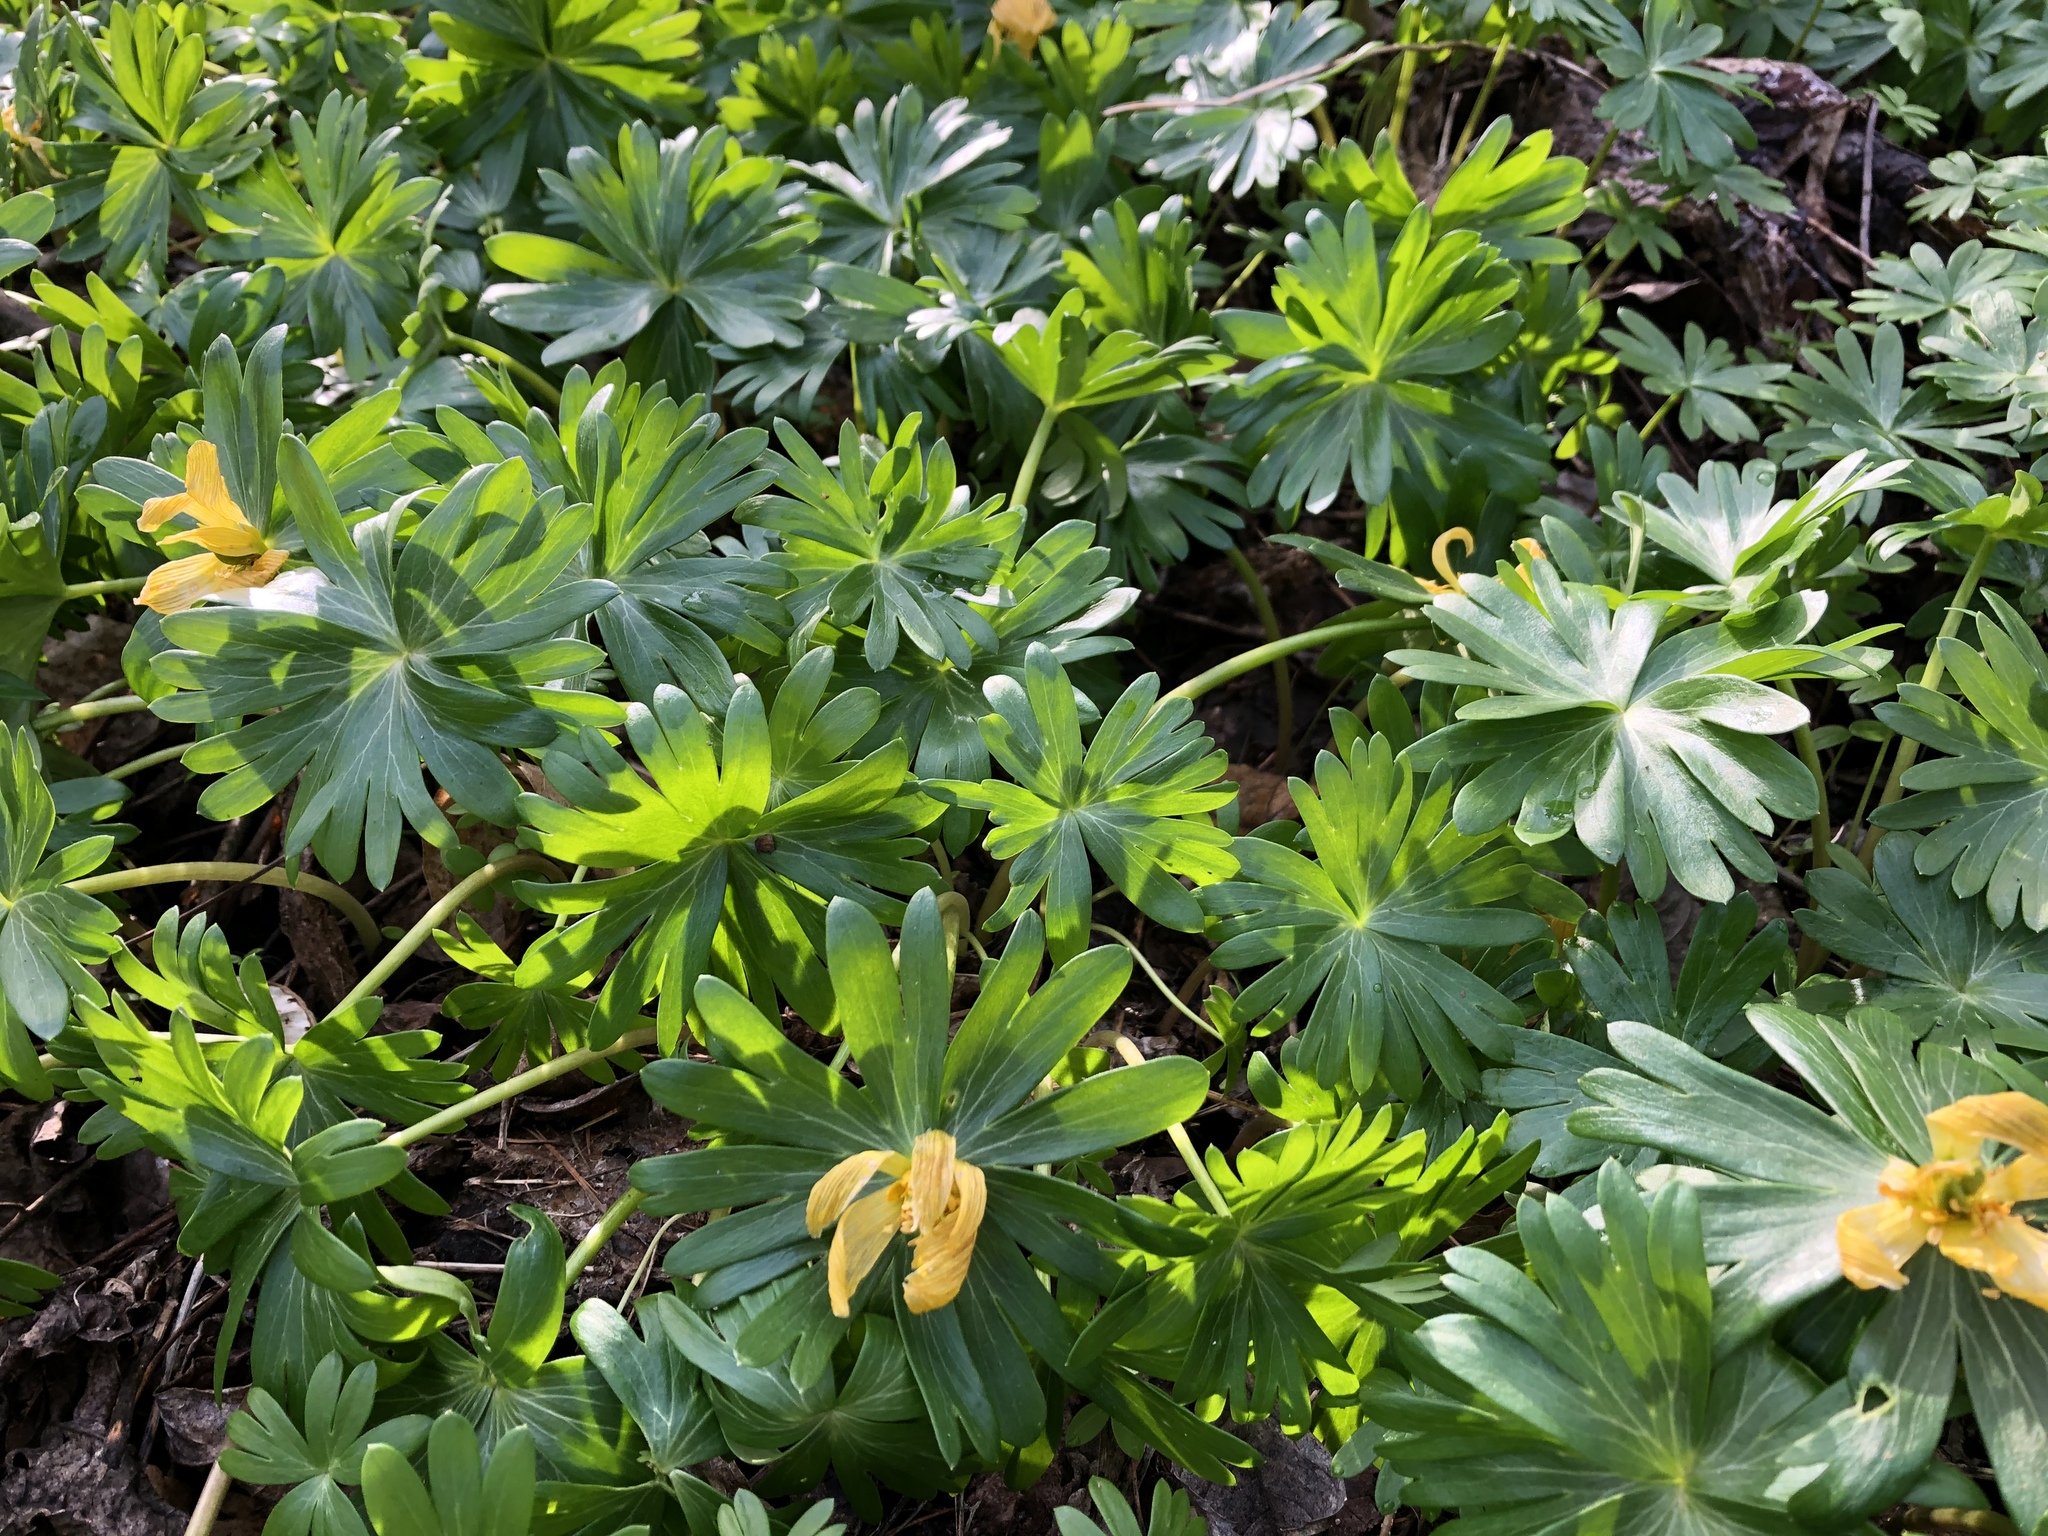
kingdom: Plantae
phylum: Tracheophyta
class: Magnoliopsida
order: Ranunculales
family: Ranunculaceae
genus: Eranthis
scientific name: Eranthis hyemalis
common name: Winter aconite
